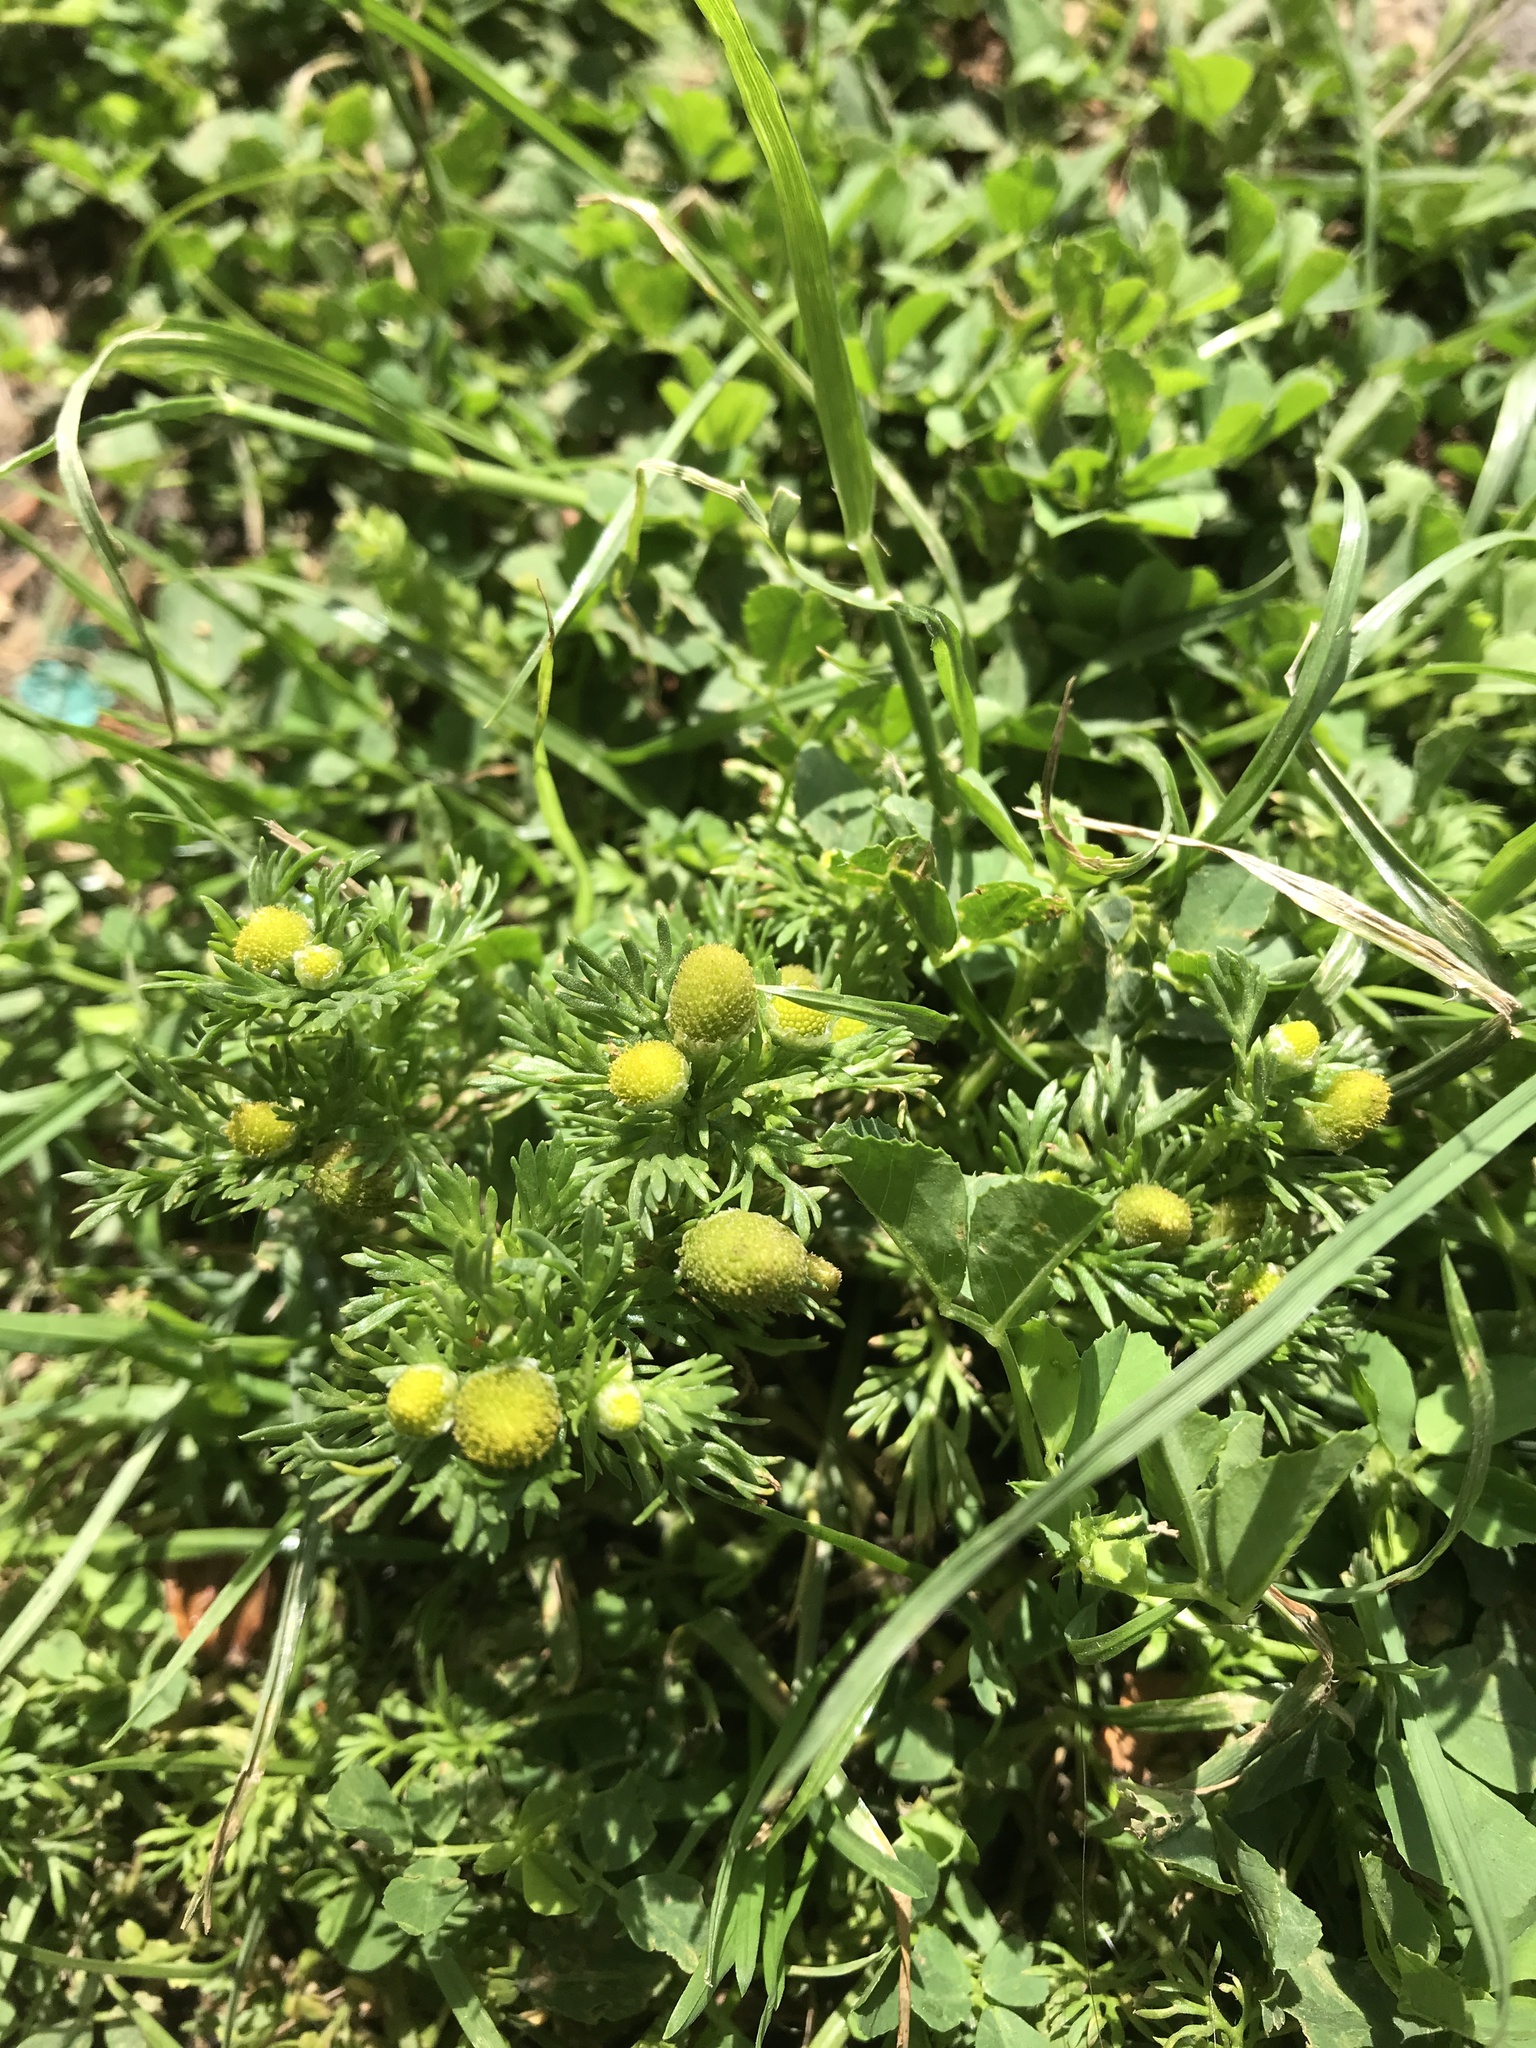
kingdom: Plantae
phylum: Tracheophyta
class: Magnoliopsida
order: Asterales
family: Asteraceae
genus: Matricaria
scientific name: Matricaria discoidea
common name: Disc mayweed
